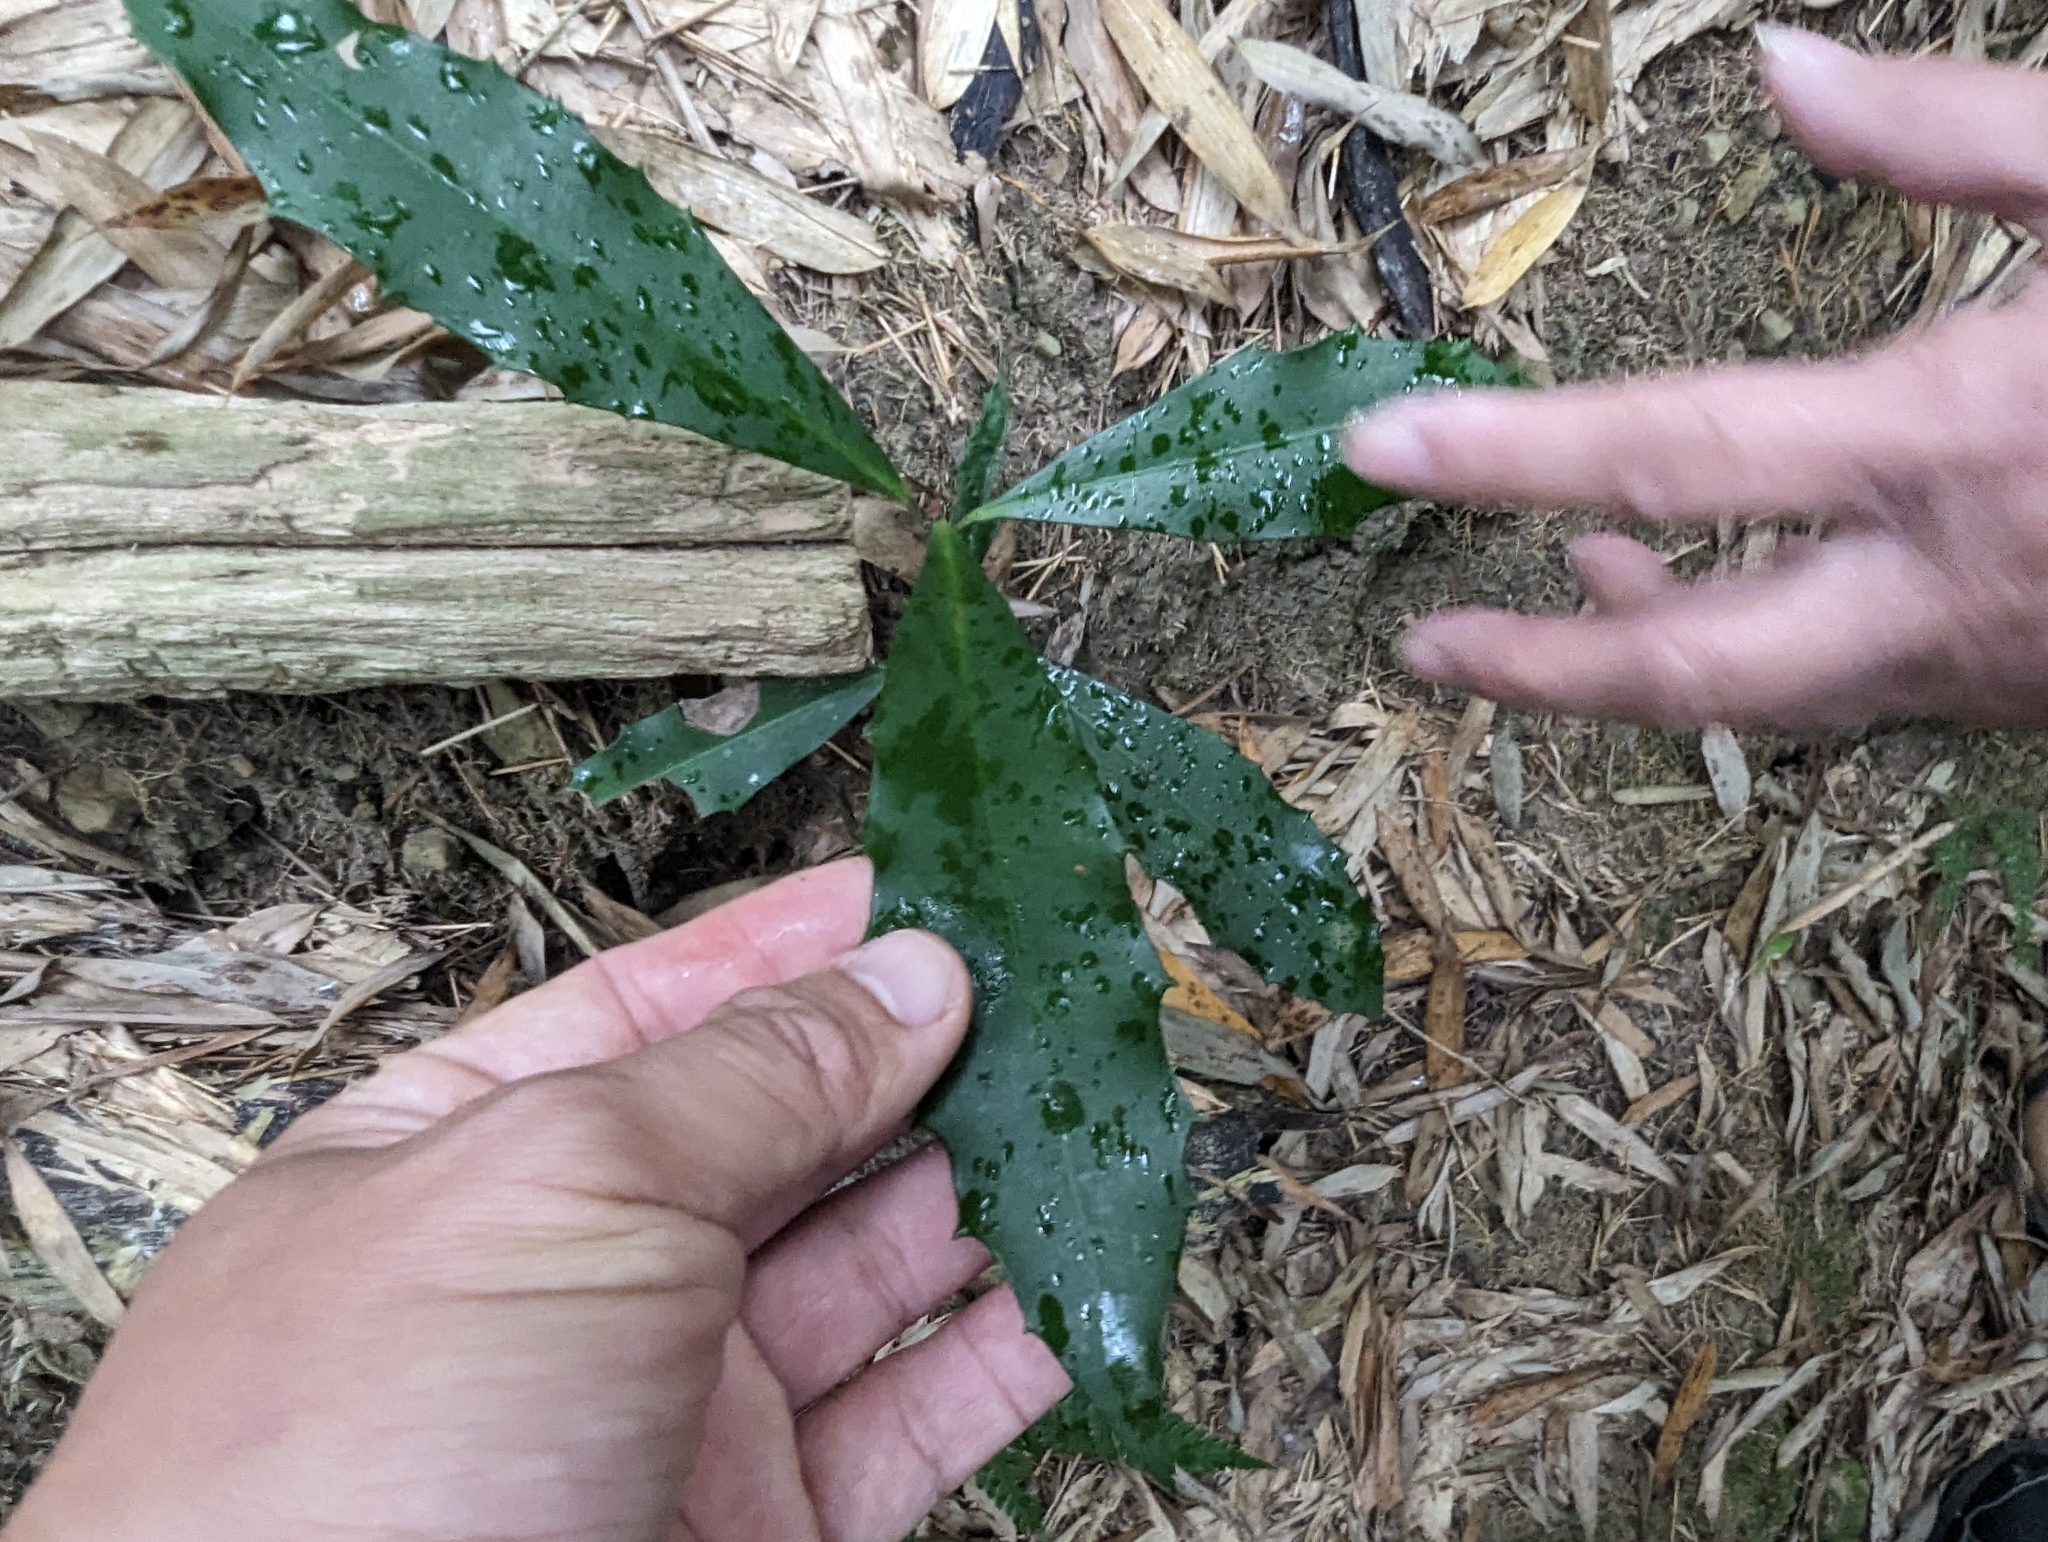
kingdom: Plantae
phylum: Tracheophyta
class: Magnoliopsida
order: Ericales
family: Primulaceae
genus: Ardisia
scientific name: Ardisia cornudentata
